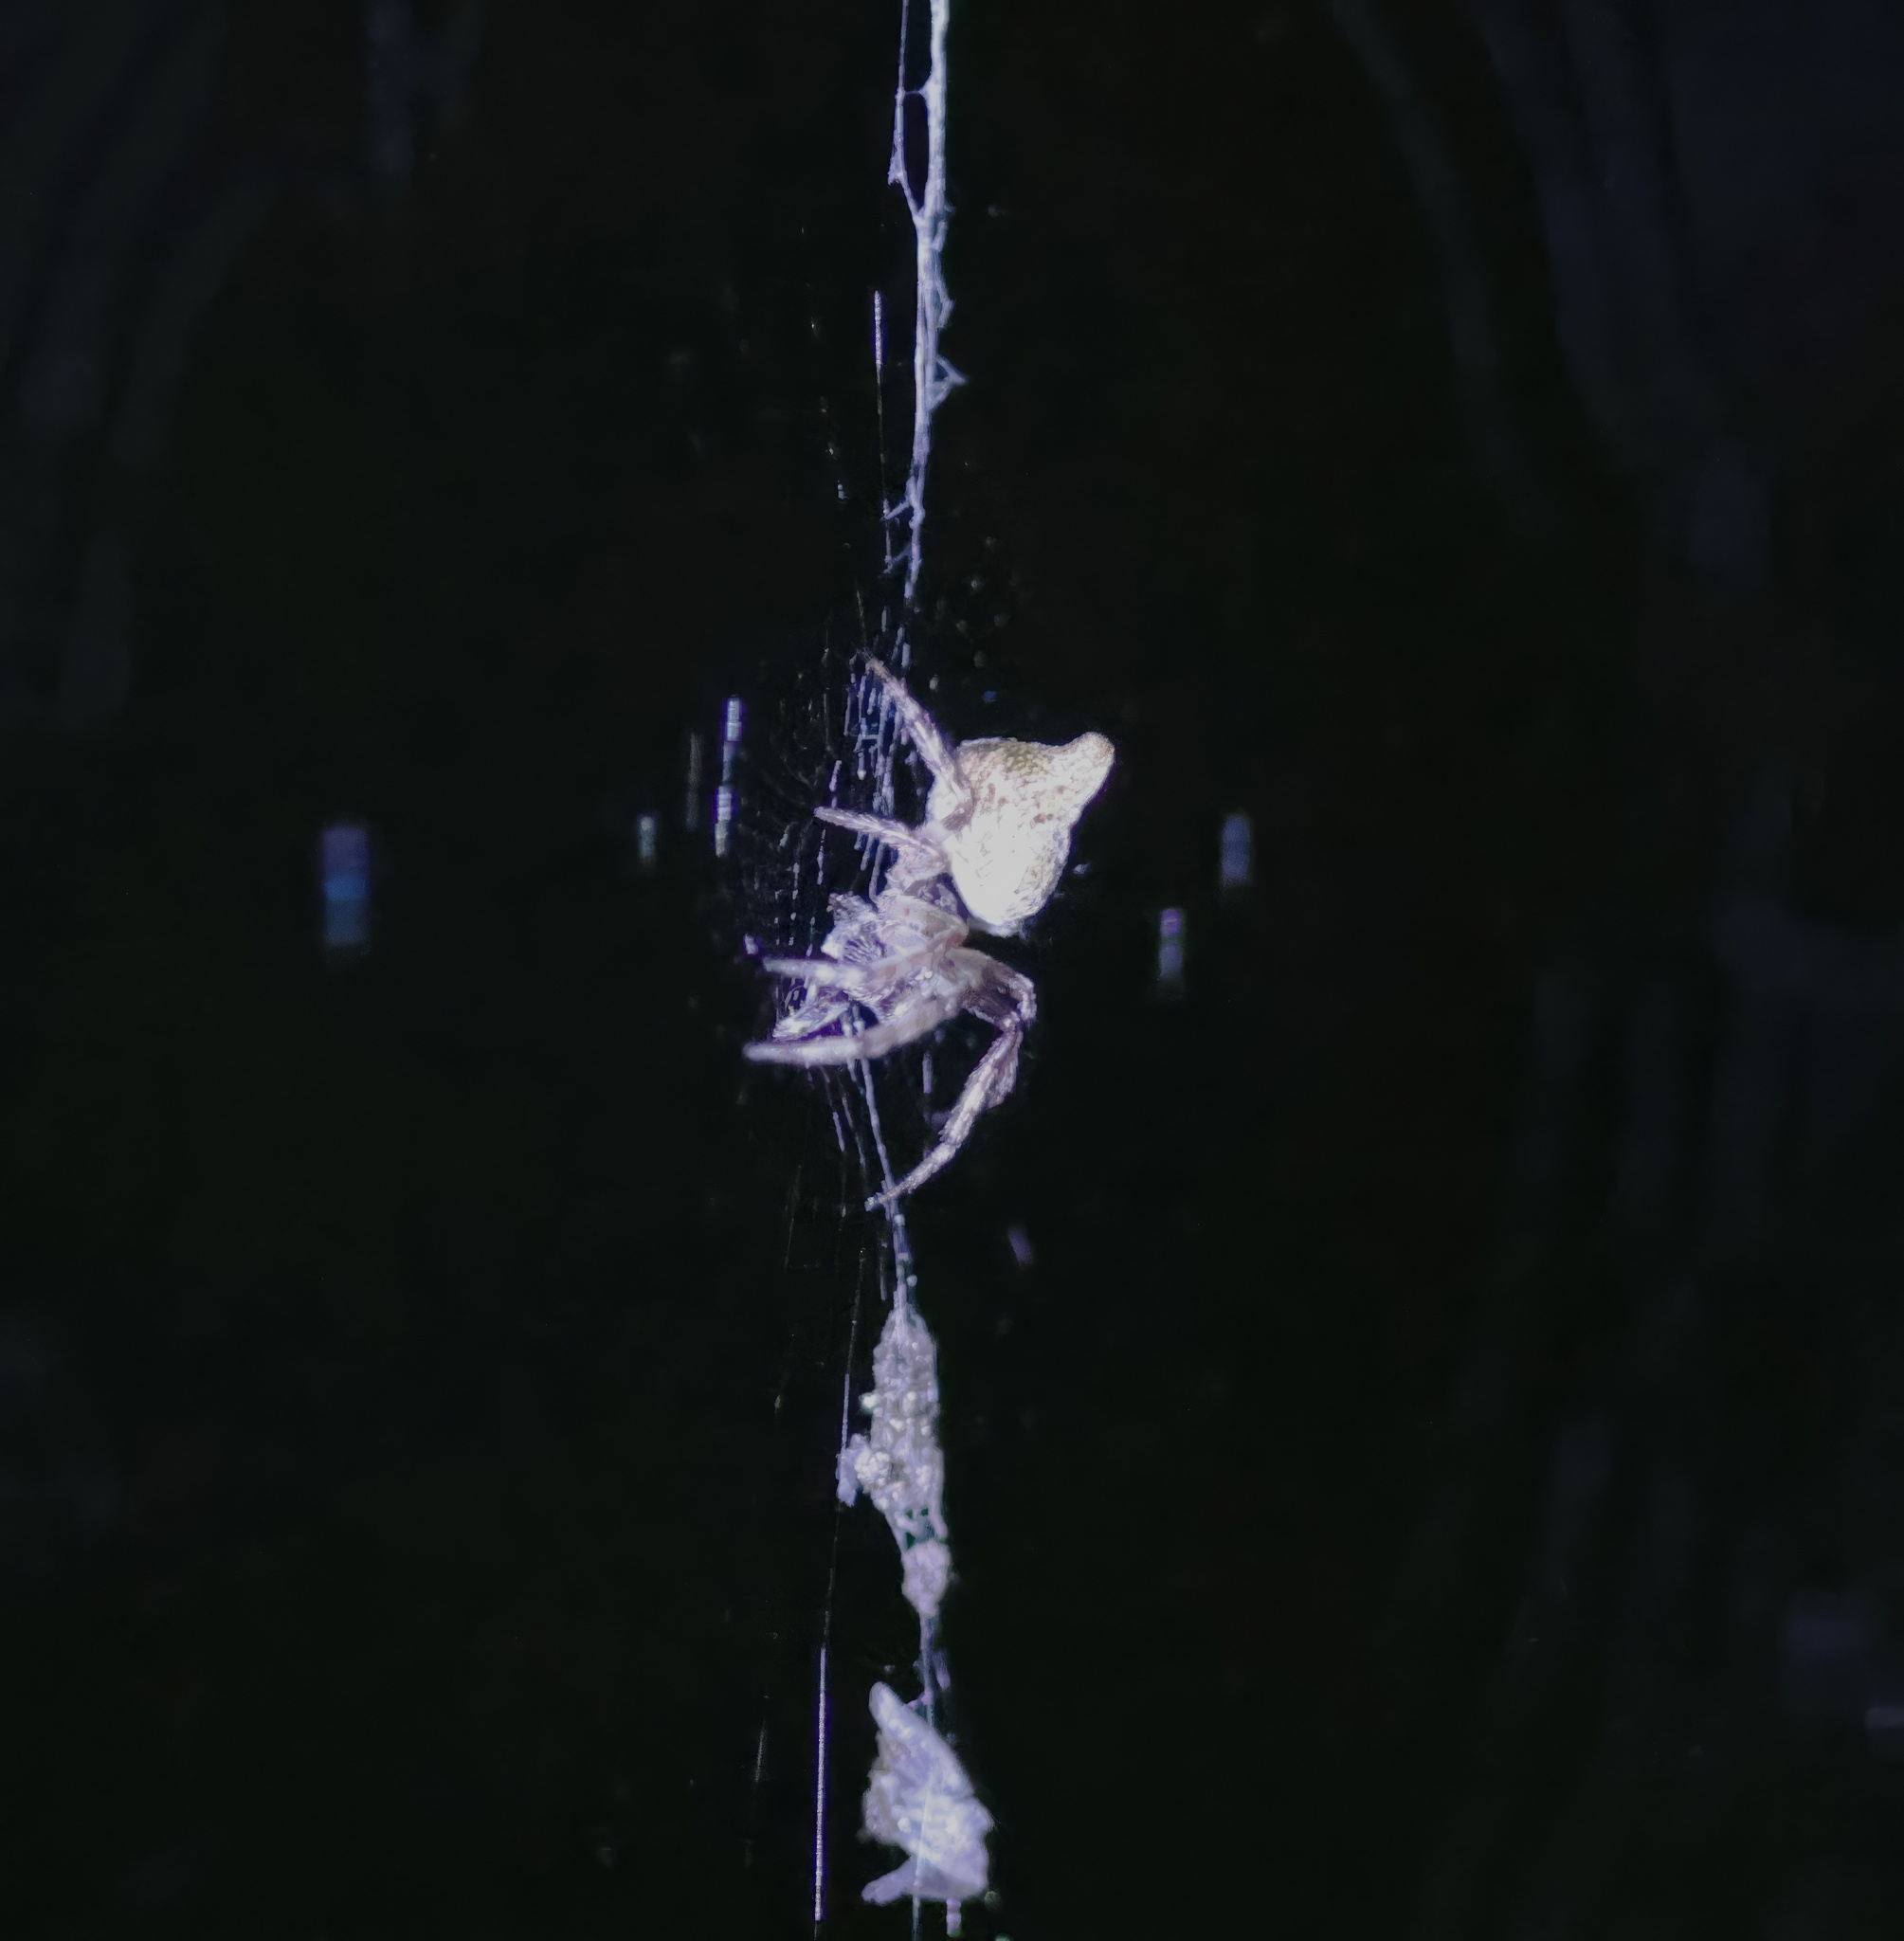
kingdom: Animalia
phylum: Arthropoda
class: Arachnida
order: Araneae
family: Araneidae
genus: Cyclosa
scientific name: Cyclosa conica
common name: Conical trashline orbweaver
